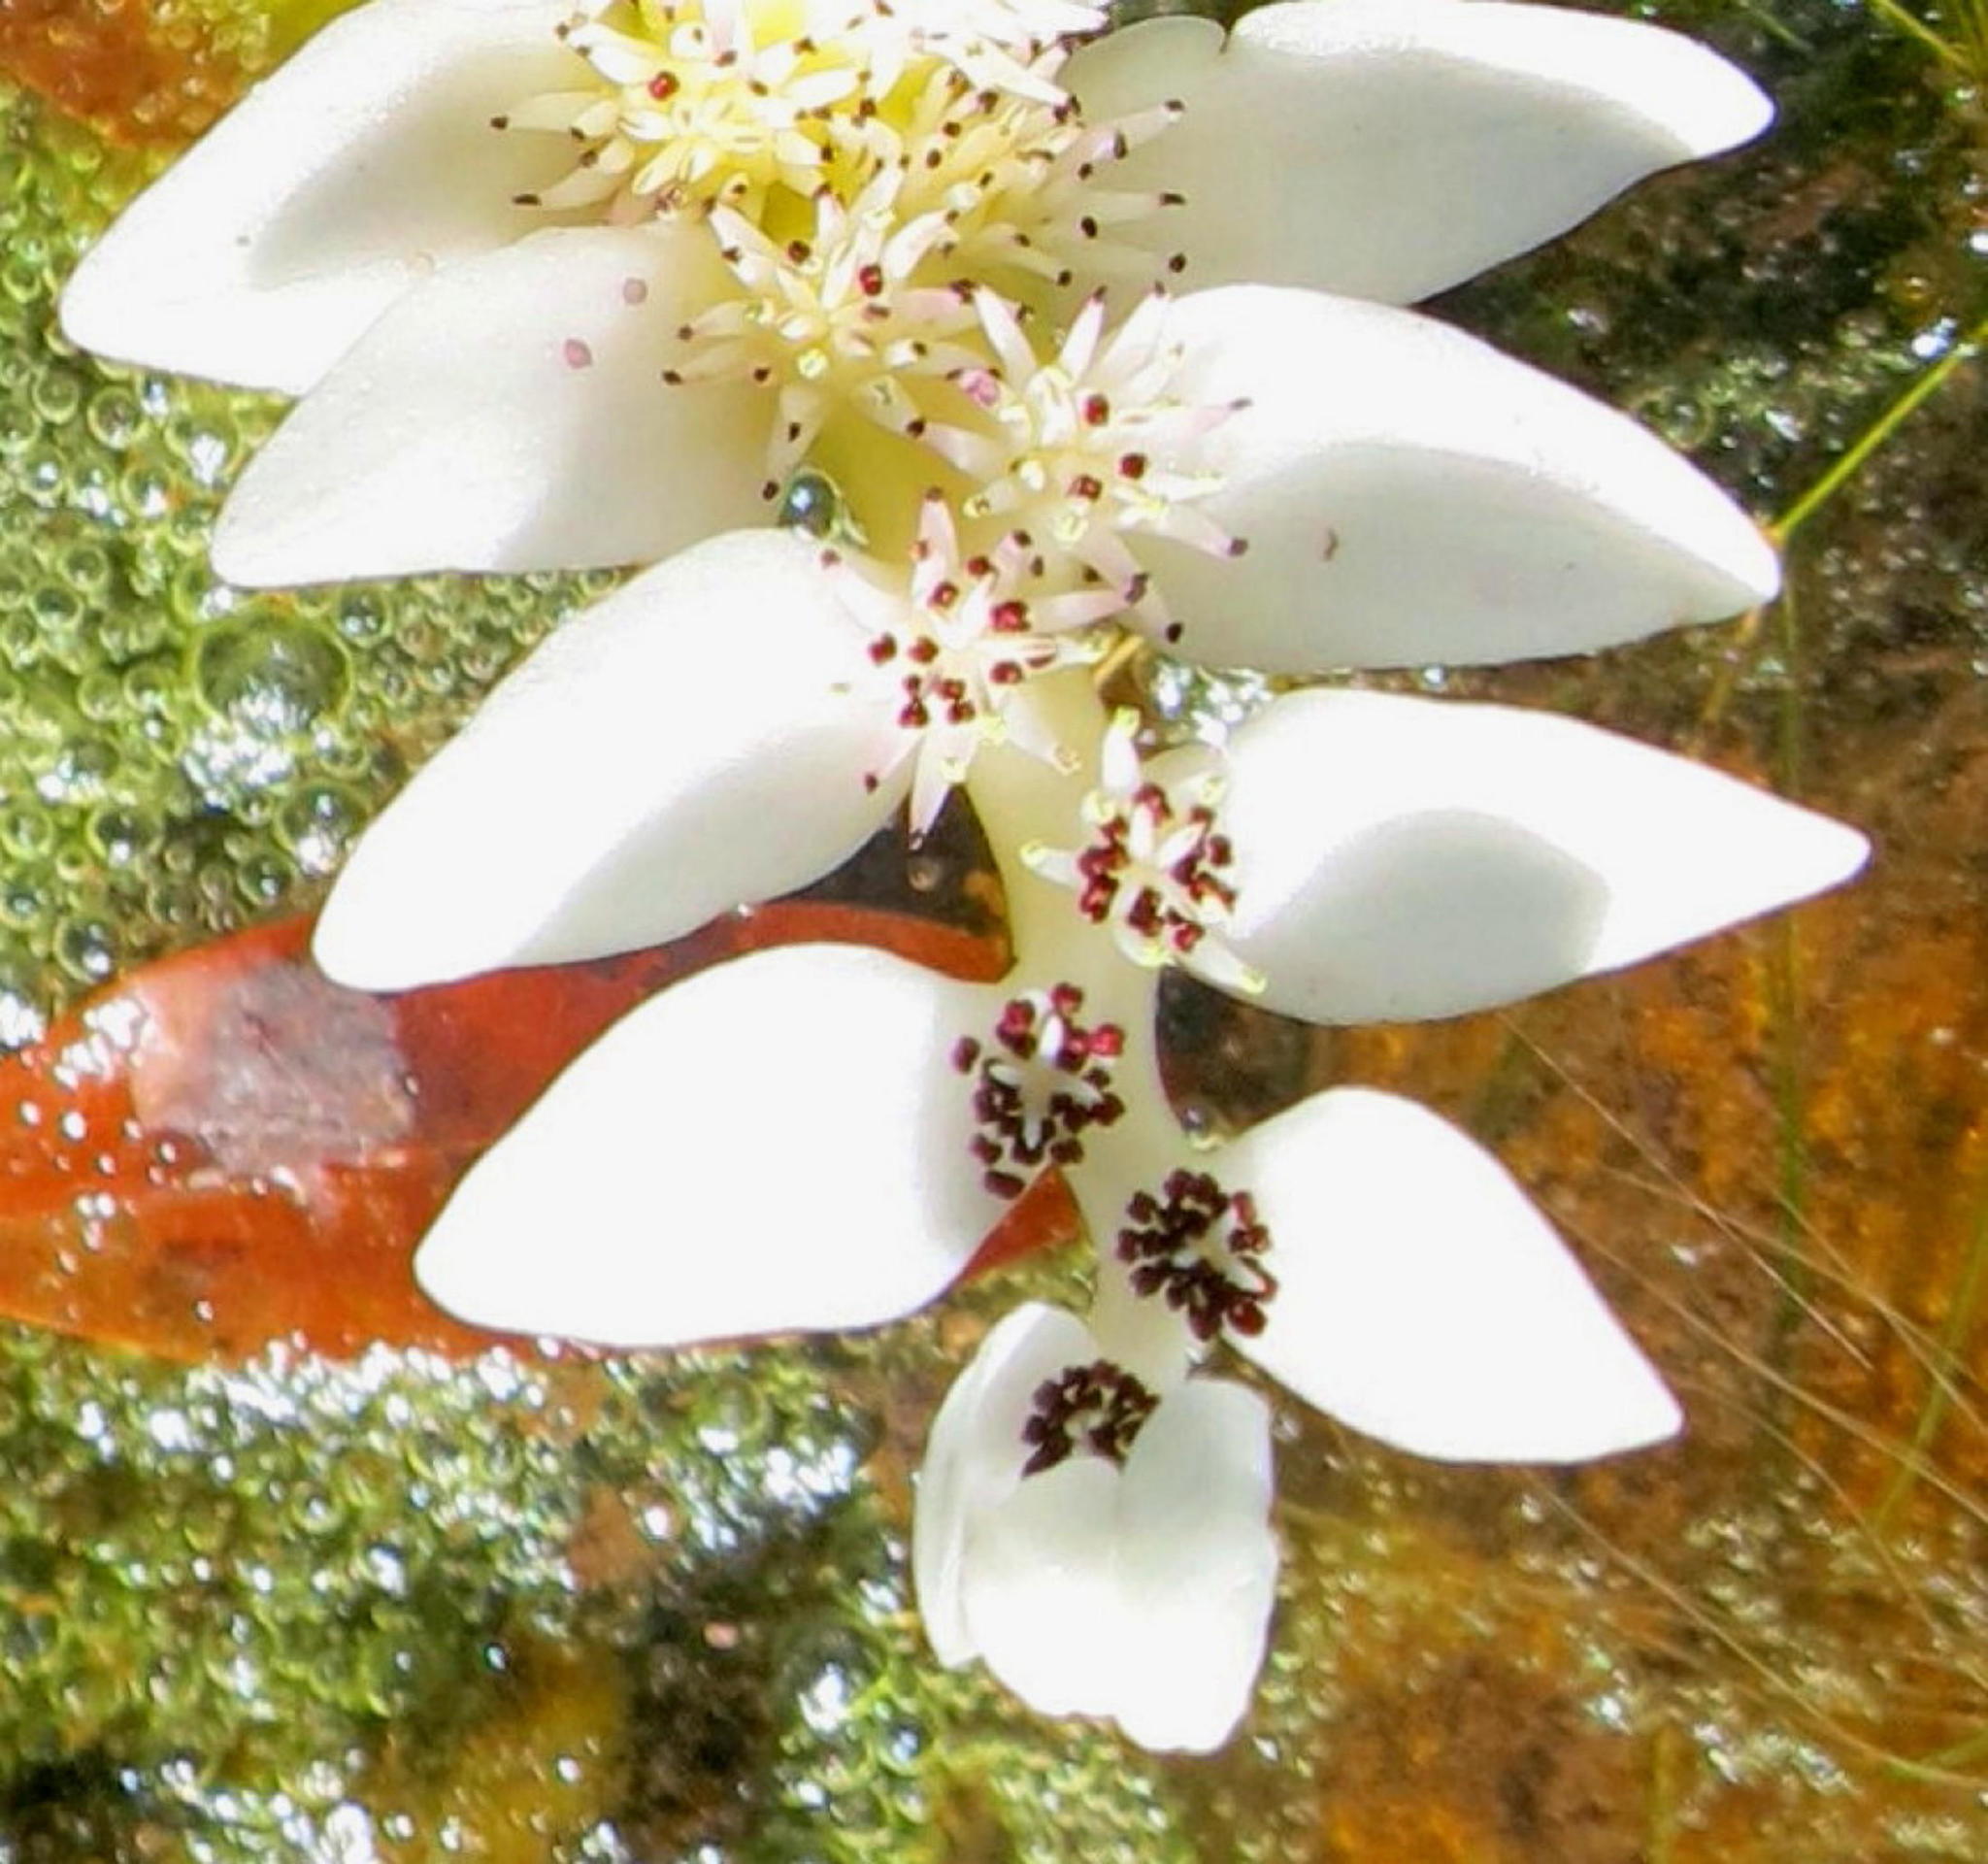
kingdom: Plantae
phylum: Tracheophyta
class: Liliopsida
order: Alismatales
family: Aponogetonaceae
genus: Aponogeton
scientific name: Aponogeton distachyos
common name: Cape-pondweed
